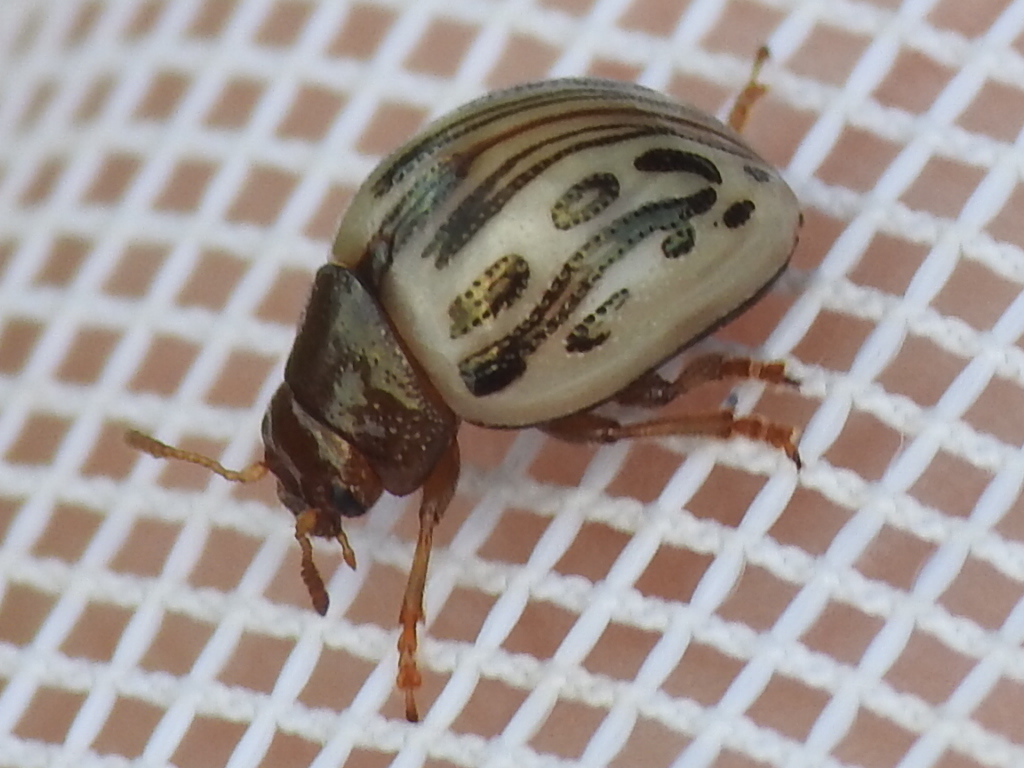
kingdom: Animalia
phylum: Arthropoda
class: Insecta
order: Coleoptera
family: Chrysomelidae
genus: Calligrapha
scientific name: Calligrapha
